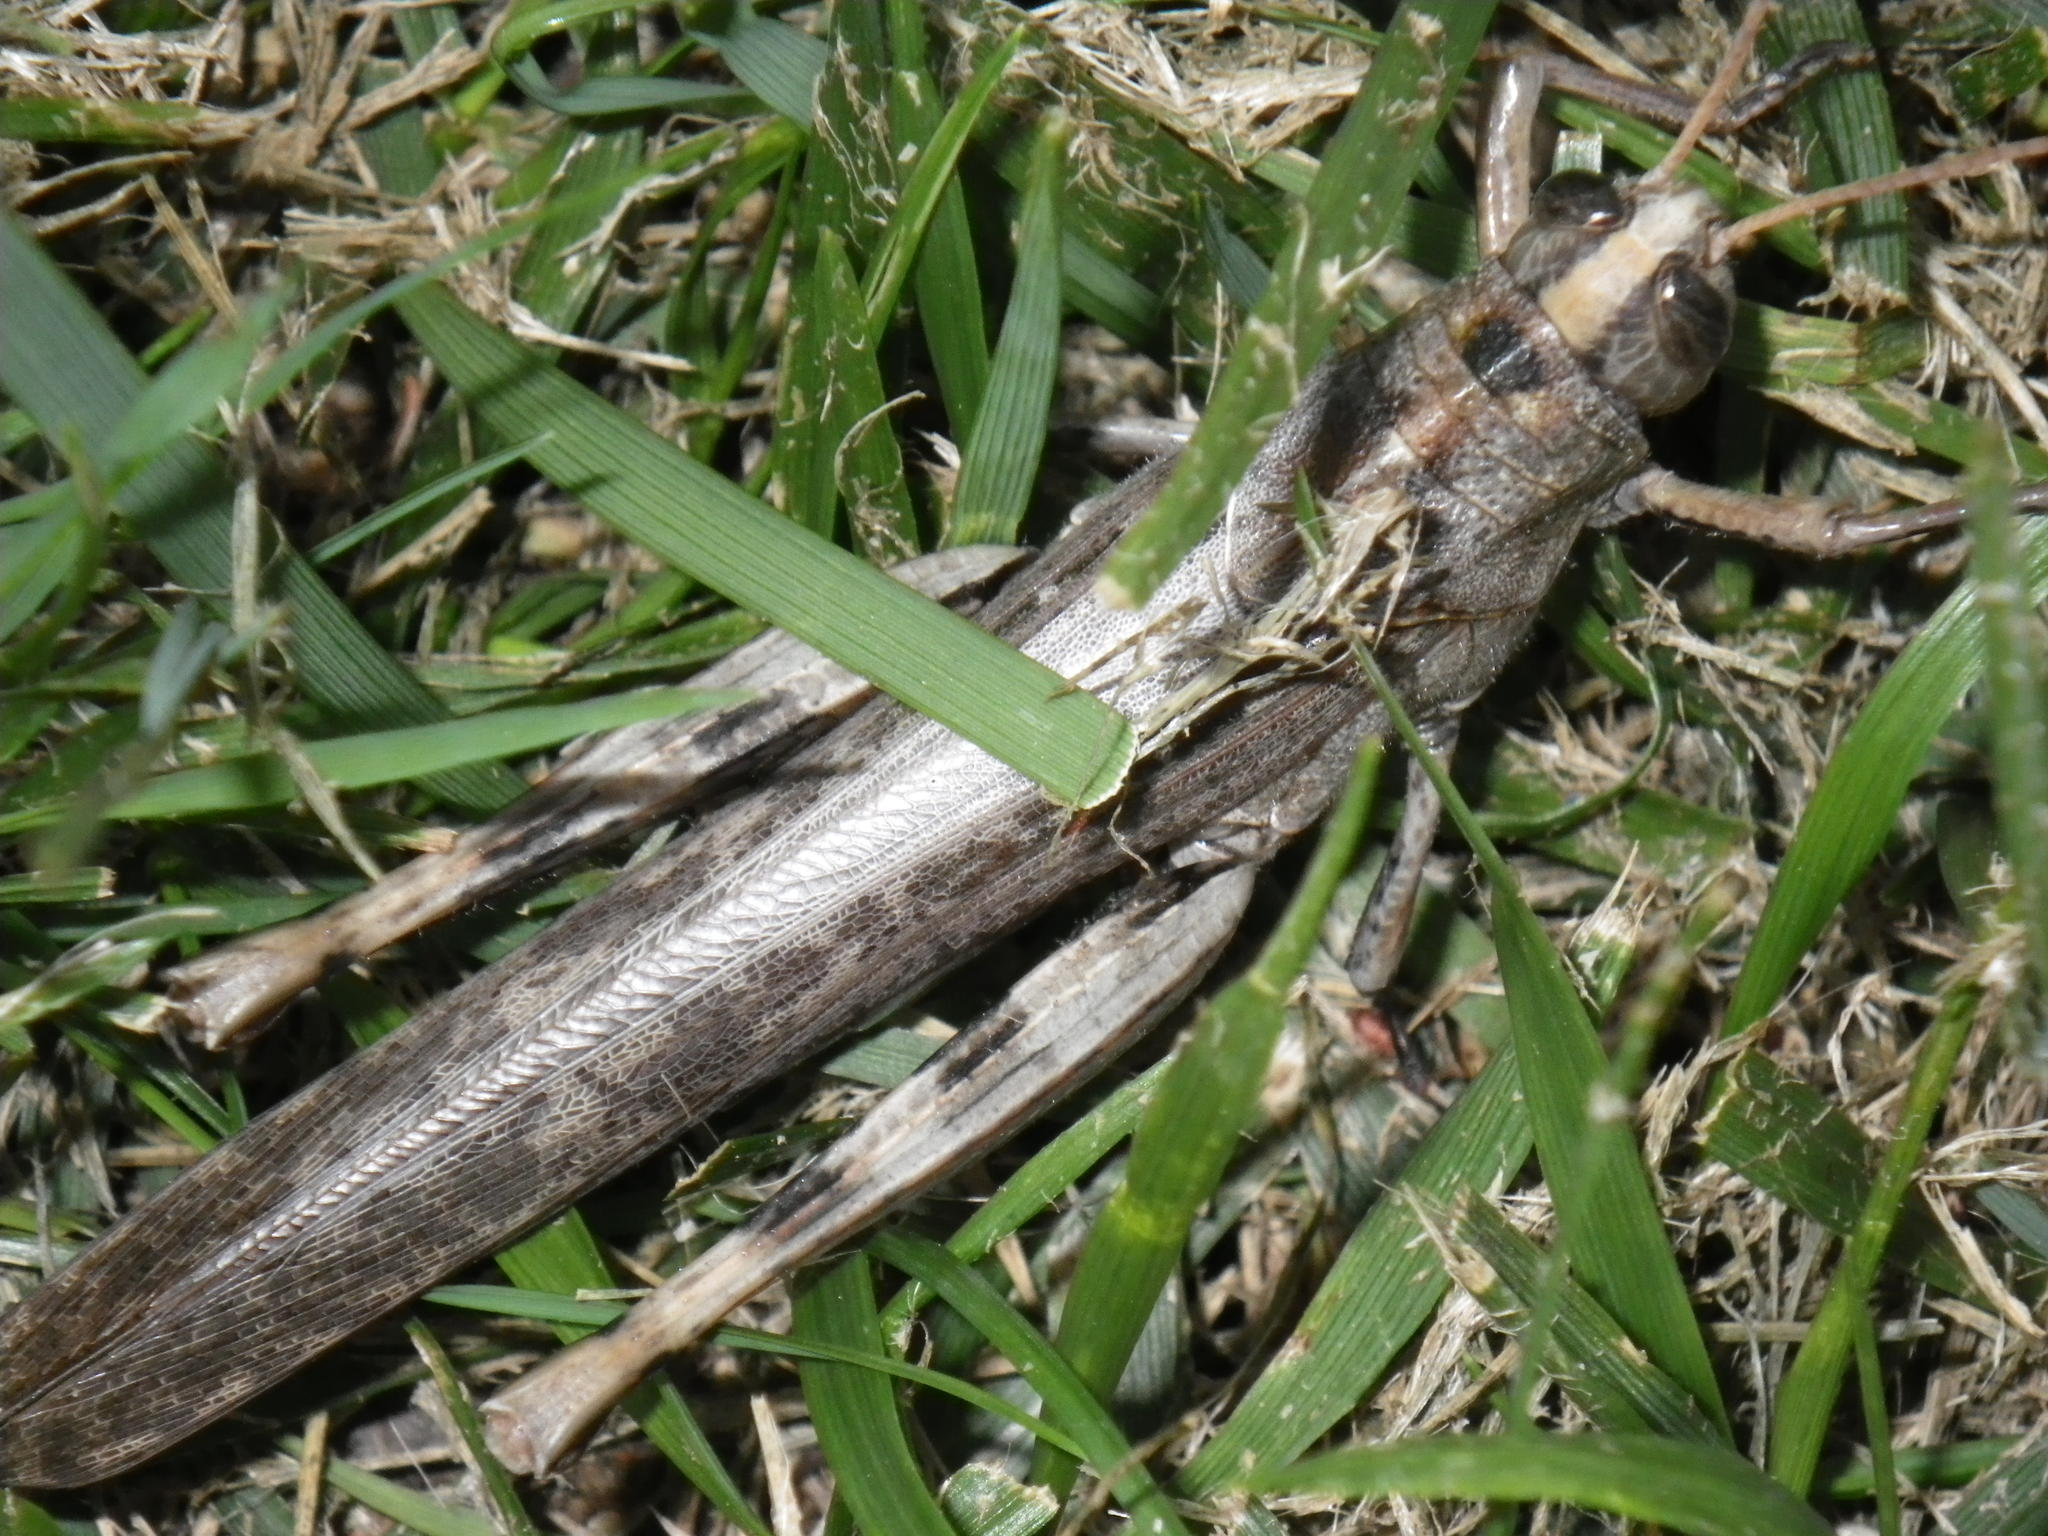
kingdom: Animalia
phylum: Arthropoda
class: Insecta
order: Orthoptera
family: Acrididae
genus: Schistocerca
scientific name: Schistocerca nitens
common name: Vagrant grasshopper
